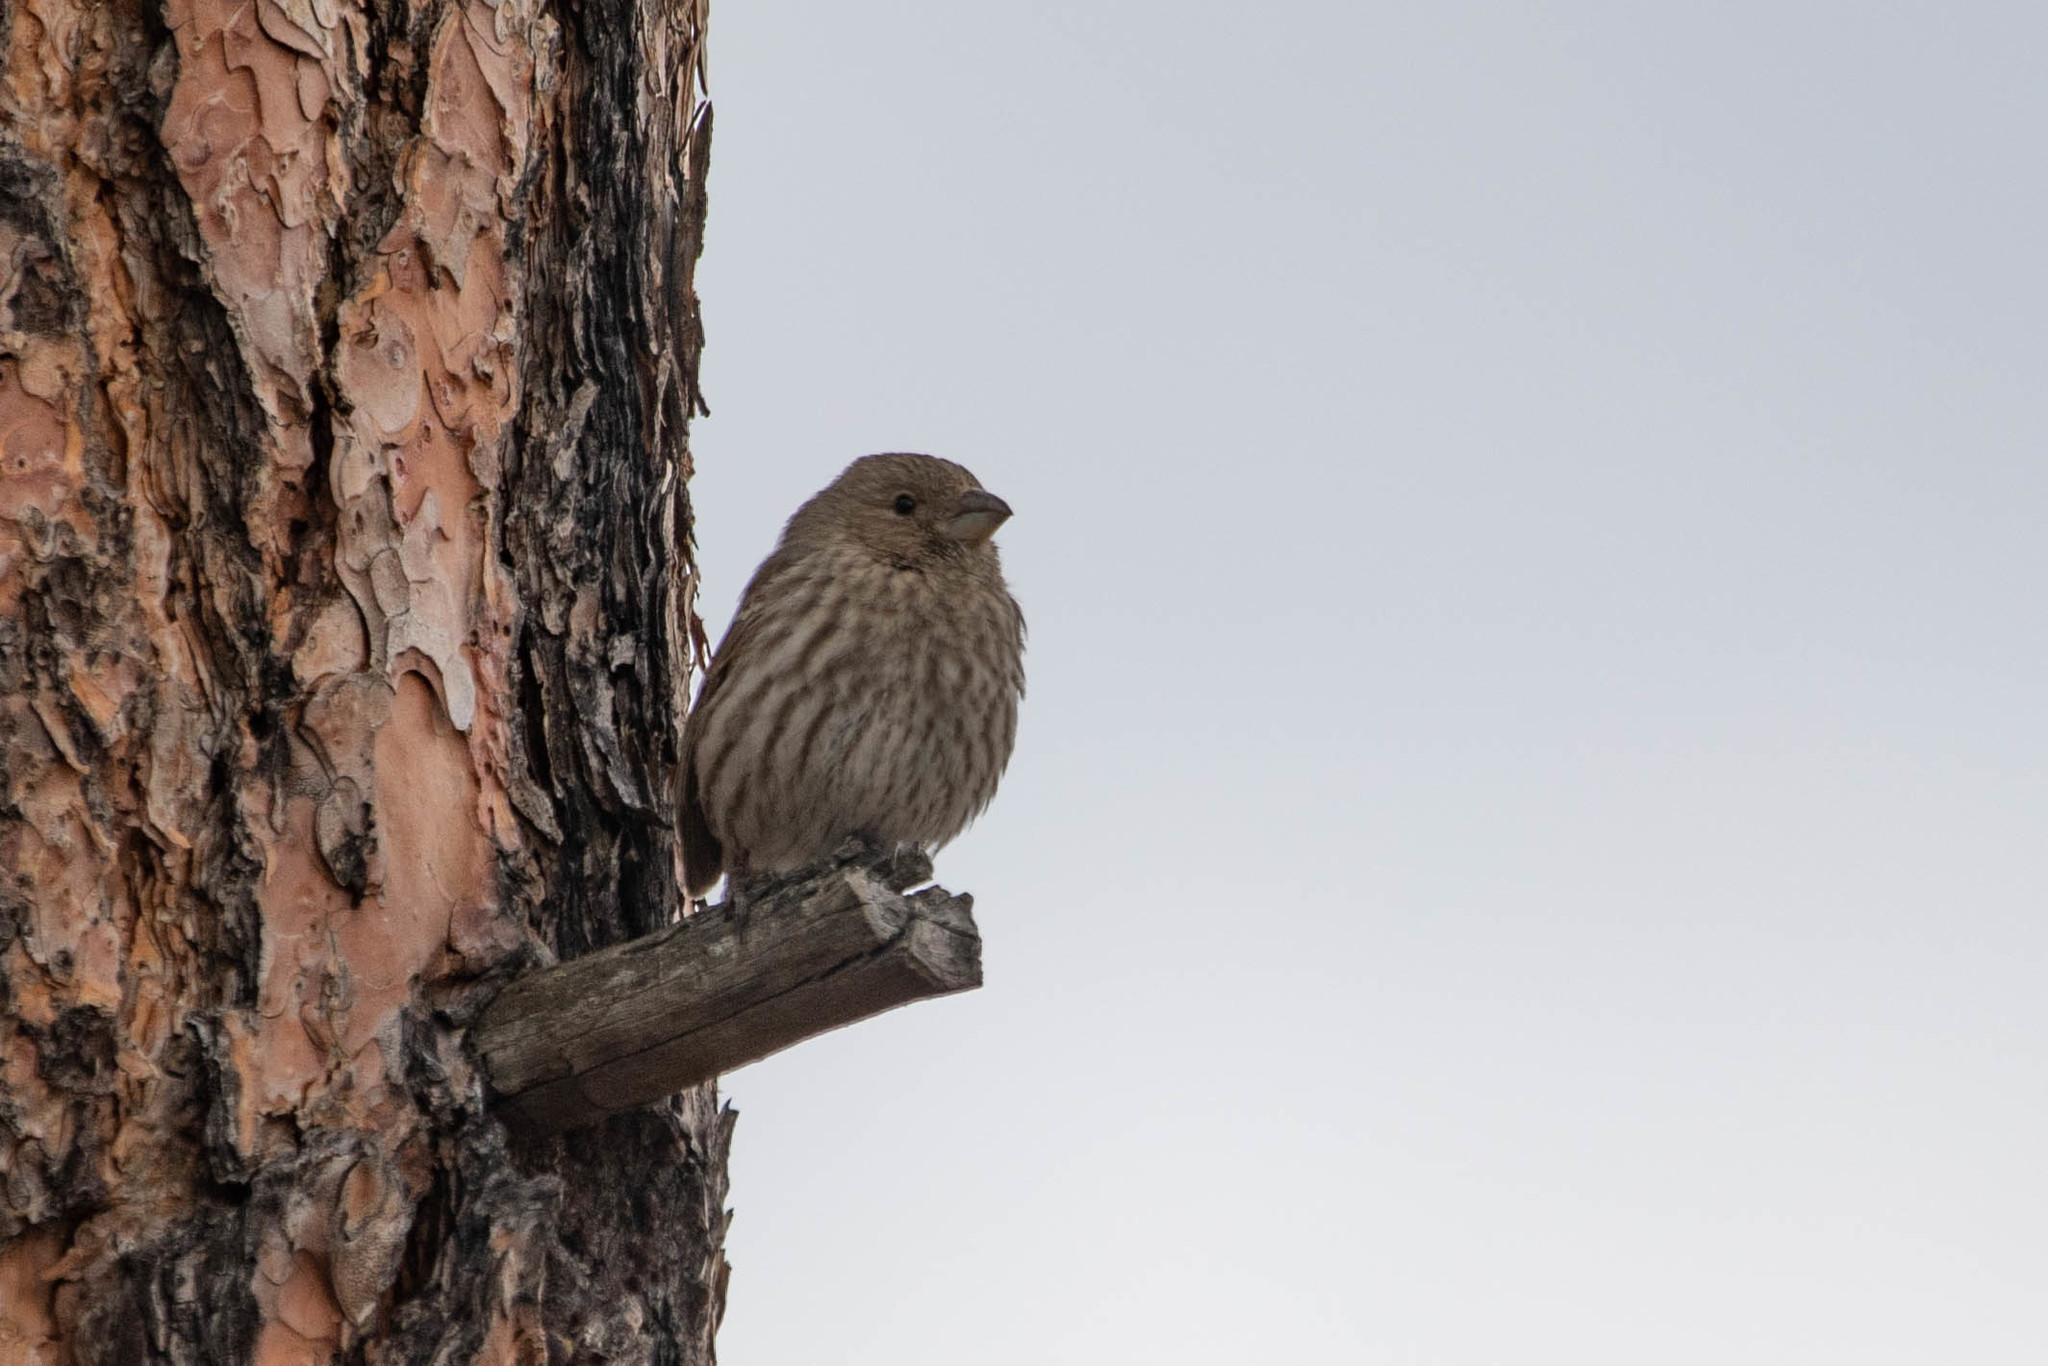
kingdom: Animalia
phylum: Chordata
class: Aves
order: Passeriformes
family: Fringillidae
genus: Haemorhous
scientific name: Haemorhous mexicanus
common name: House finch
